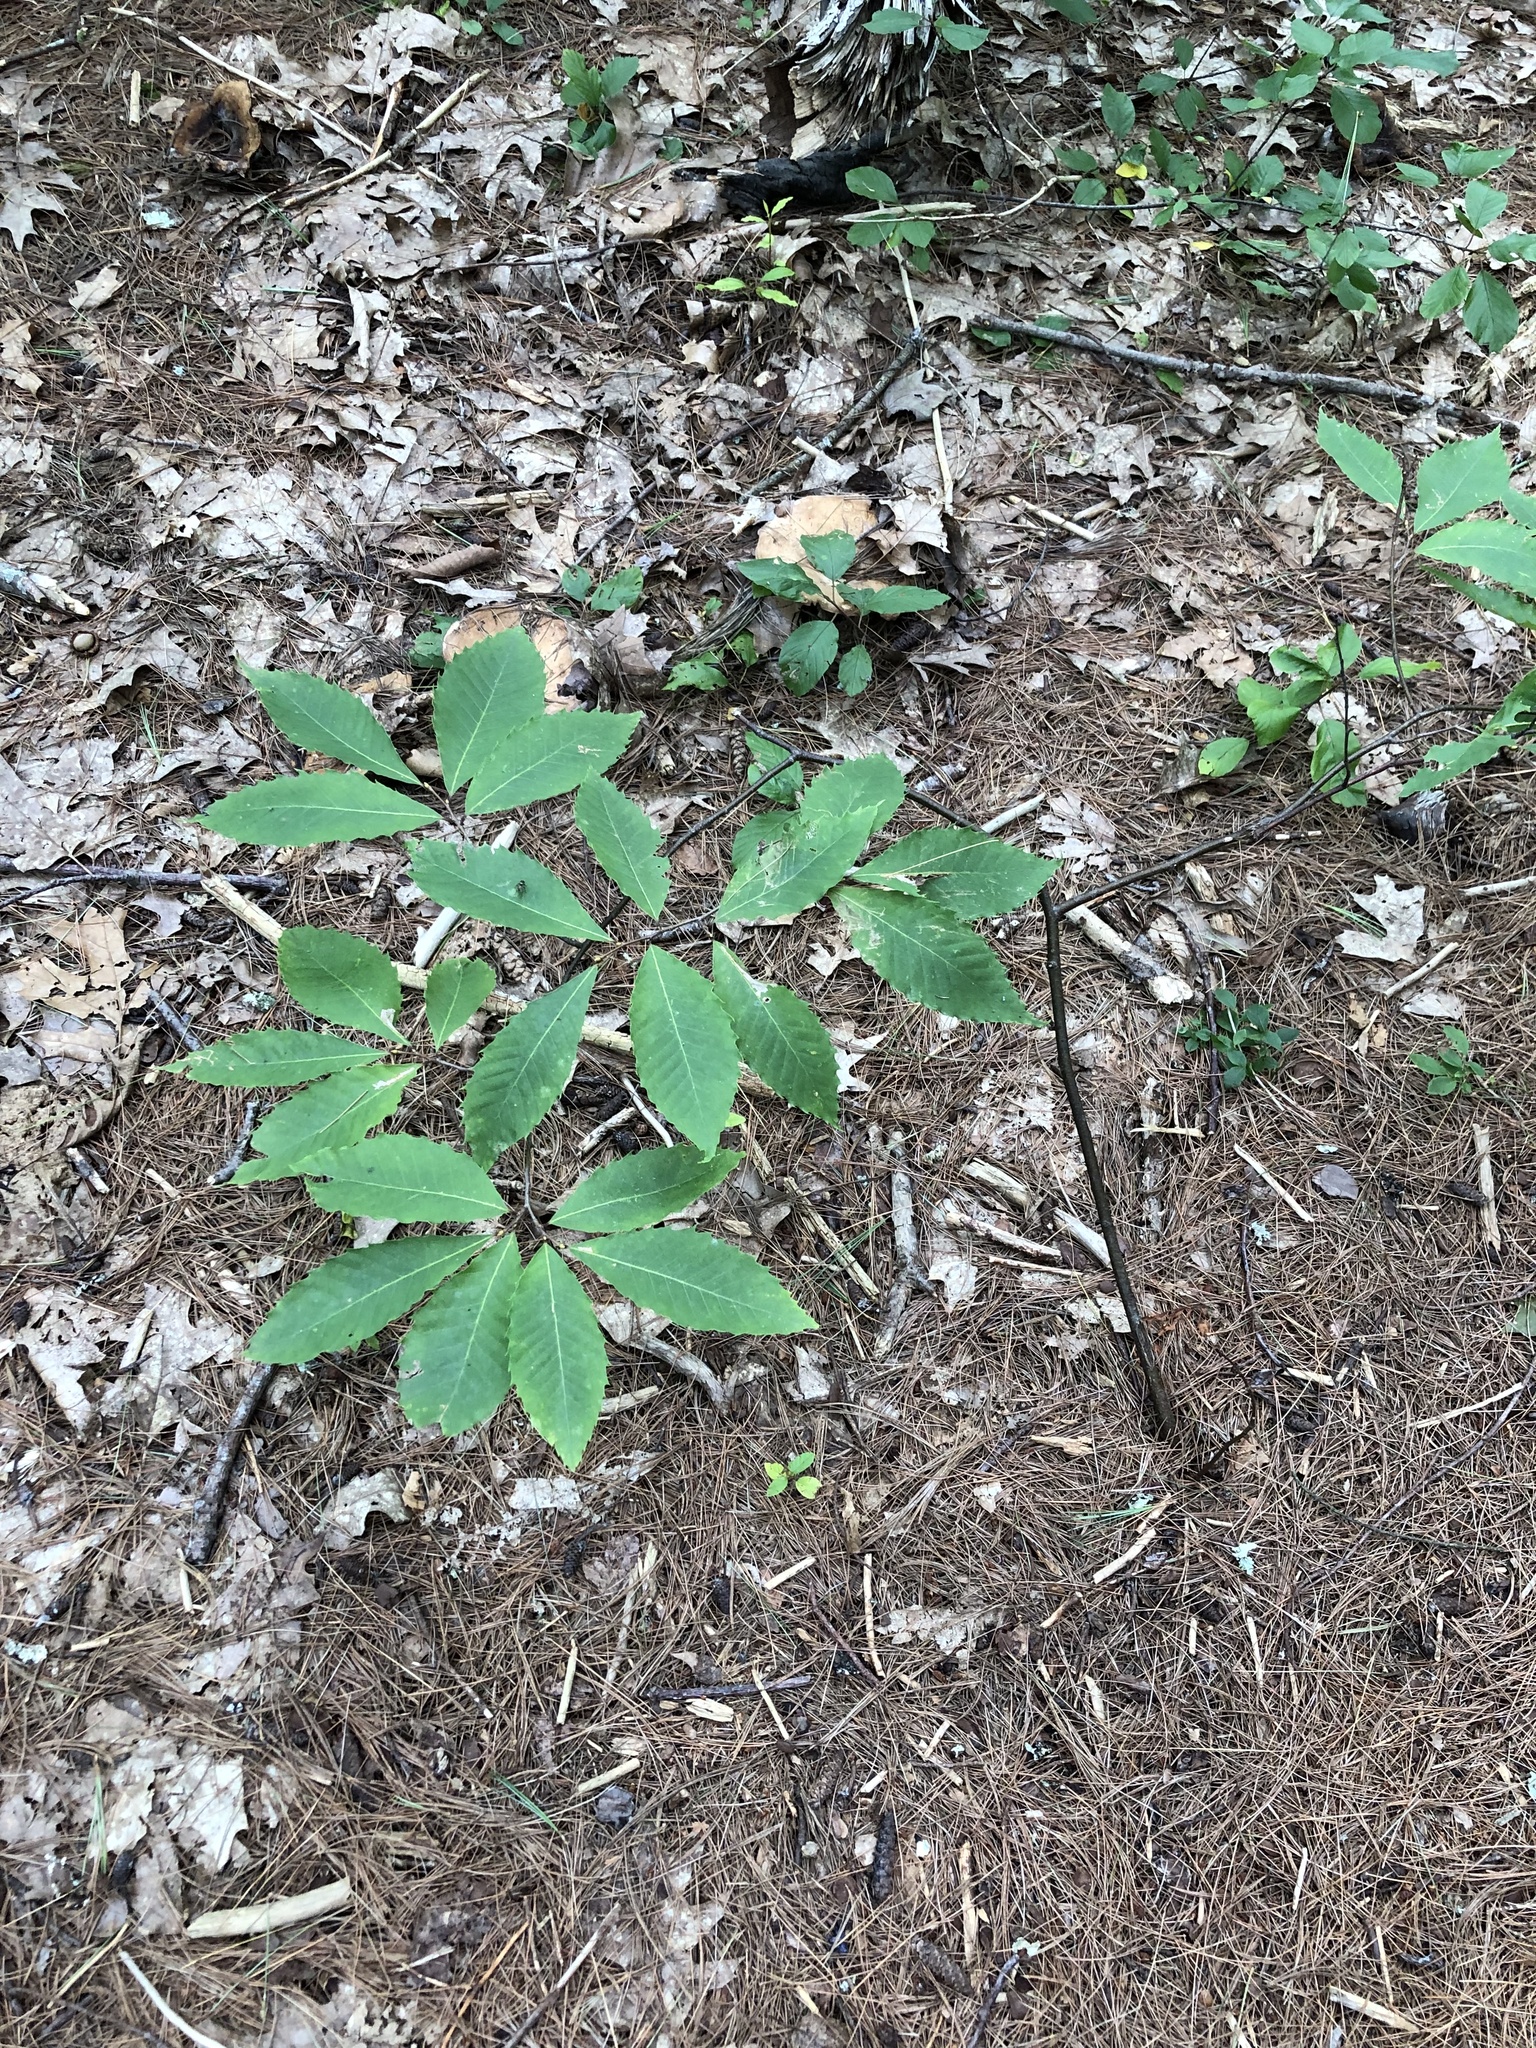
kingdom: Plantae
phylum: Tracheophyta
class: Magnoliopsida
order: Fagales
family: Fagaceae
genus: Castanea
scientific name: Castanea dentata
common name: American chestnut
